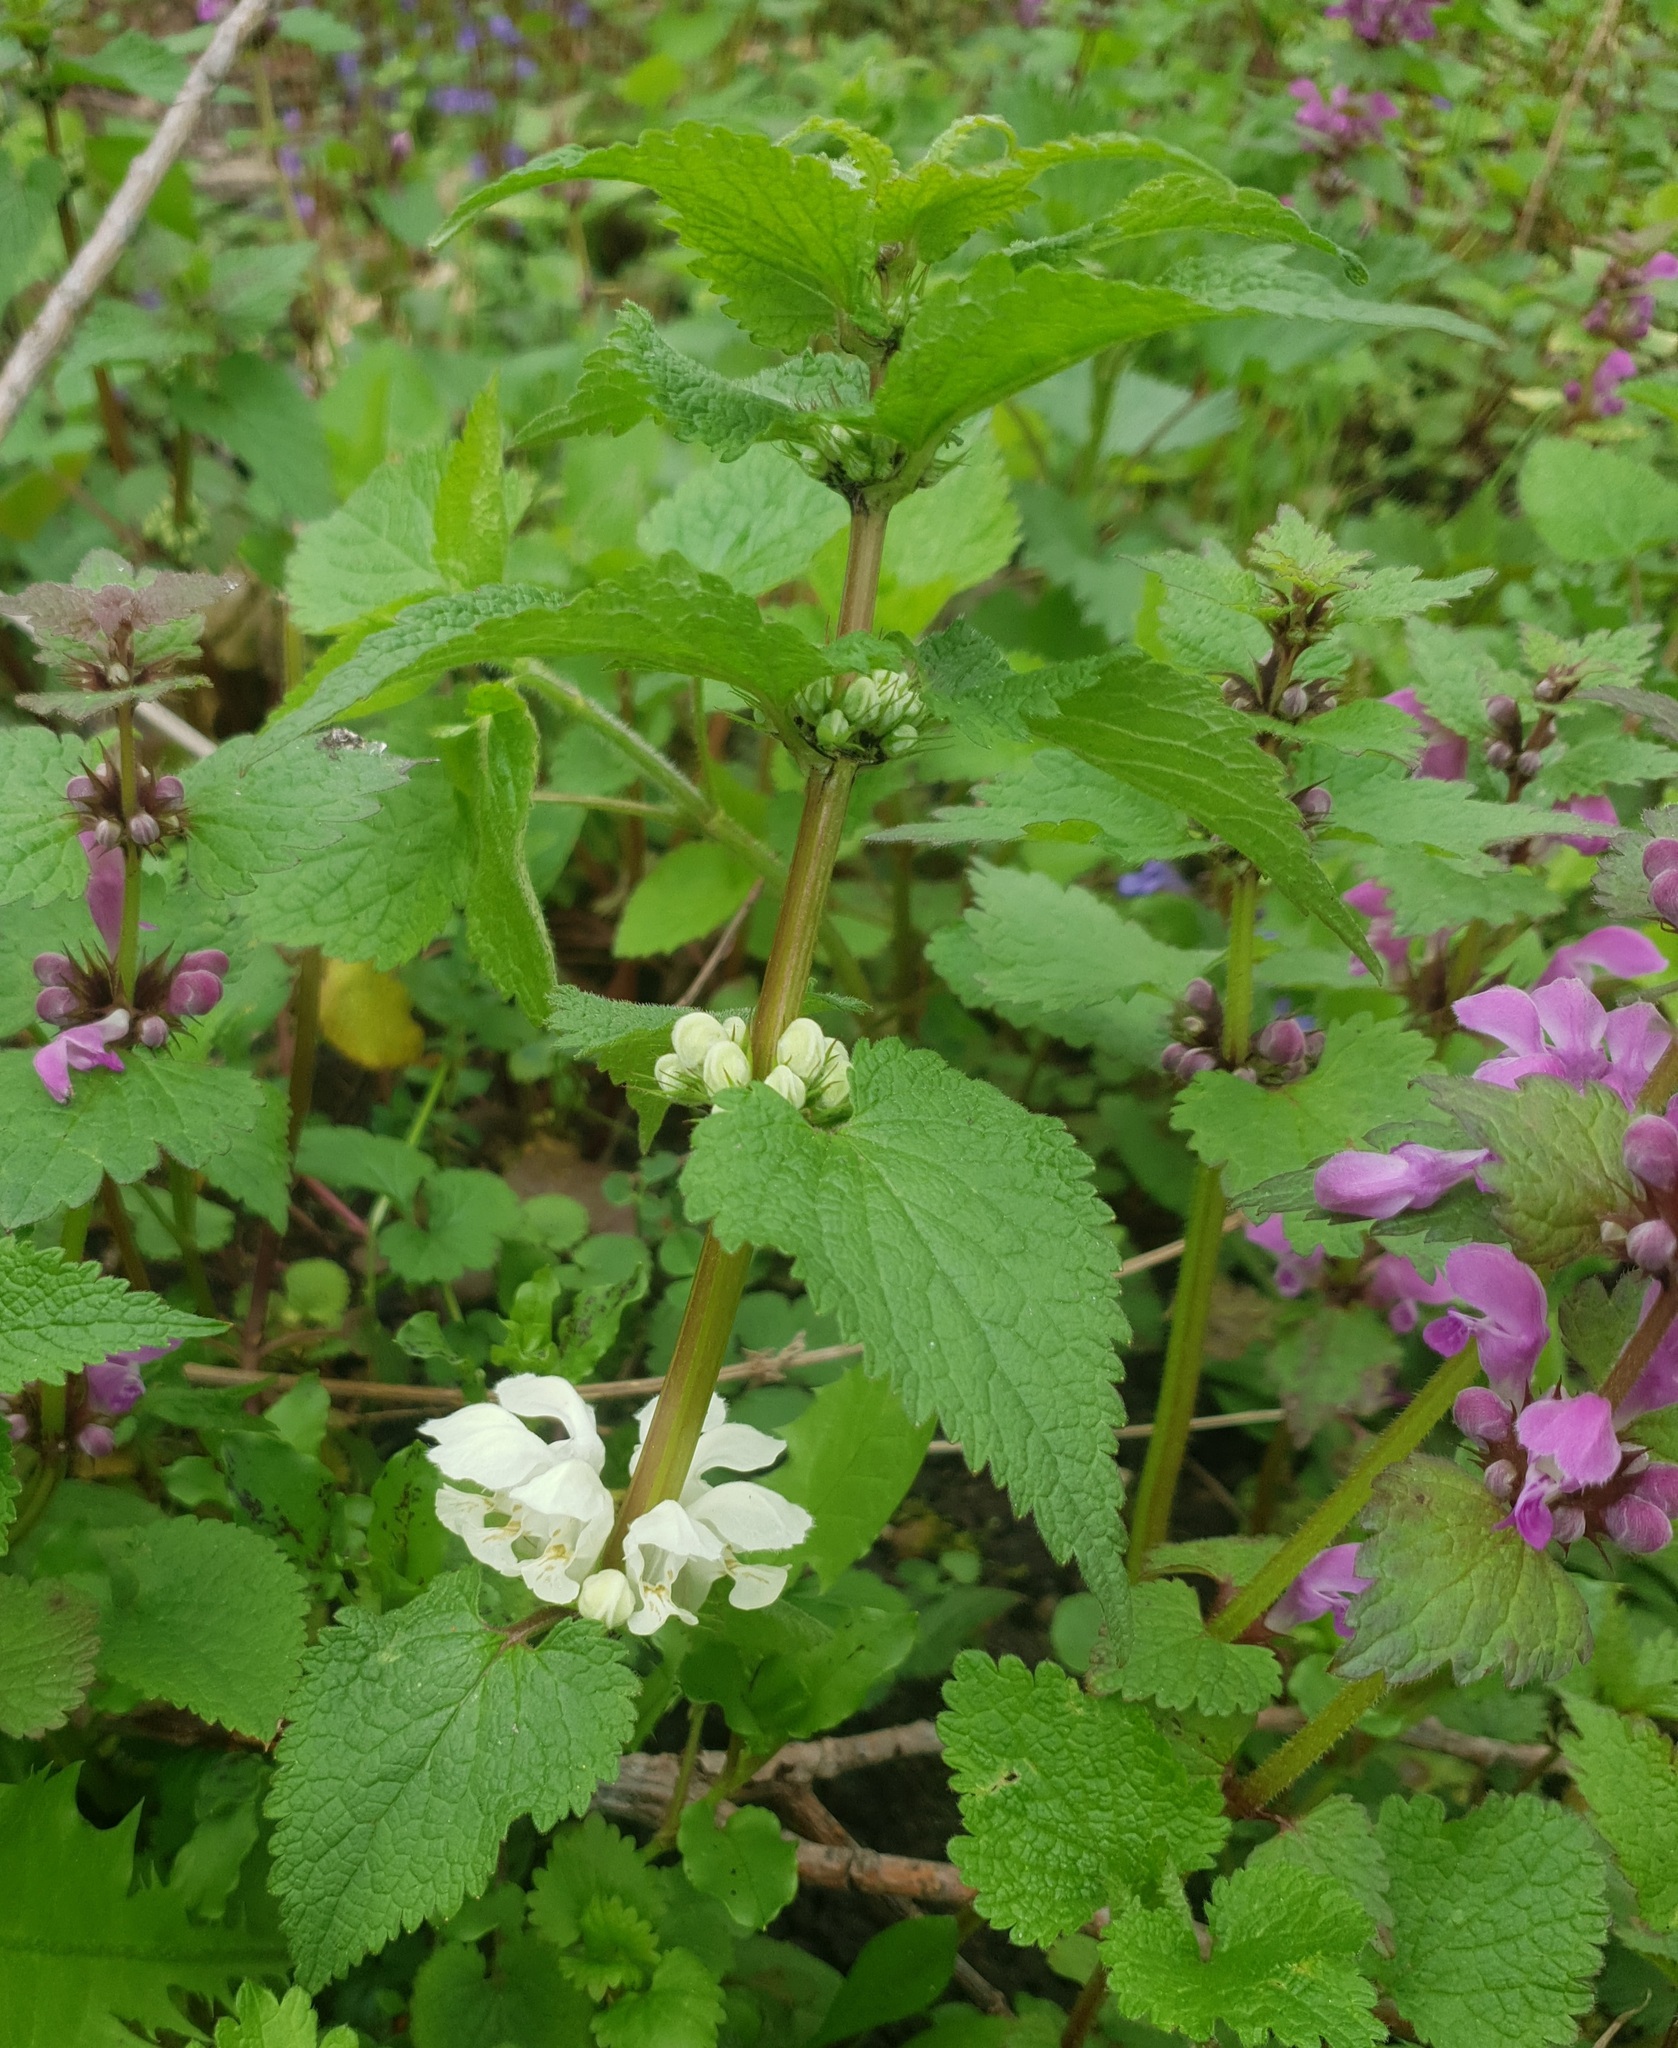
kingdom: Plantae
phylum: Tracheophyta
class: Magnoliopsida
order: Lamiales
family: Lamiaceae
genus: Lamium
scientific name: Lamium album
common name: White dead-nettle
